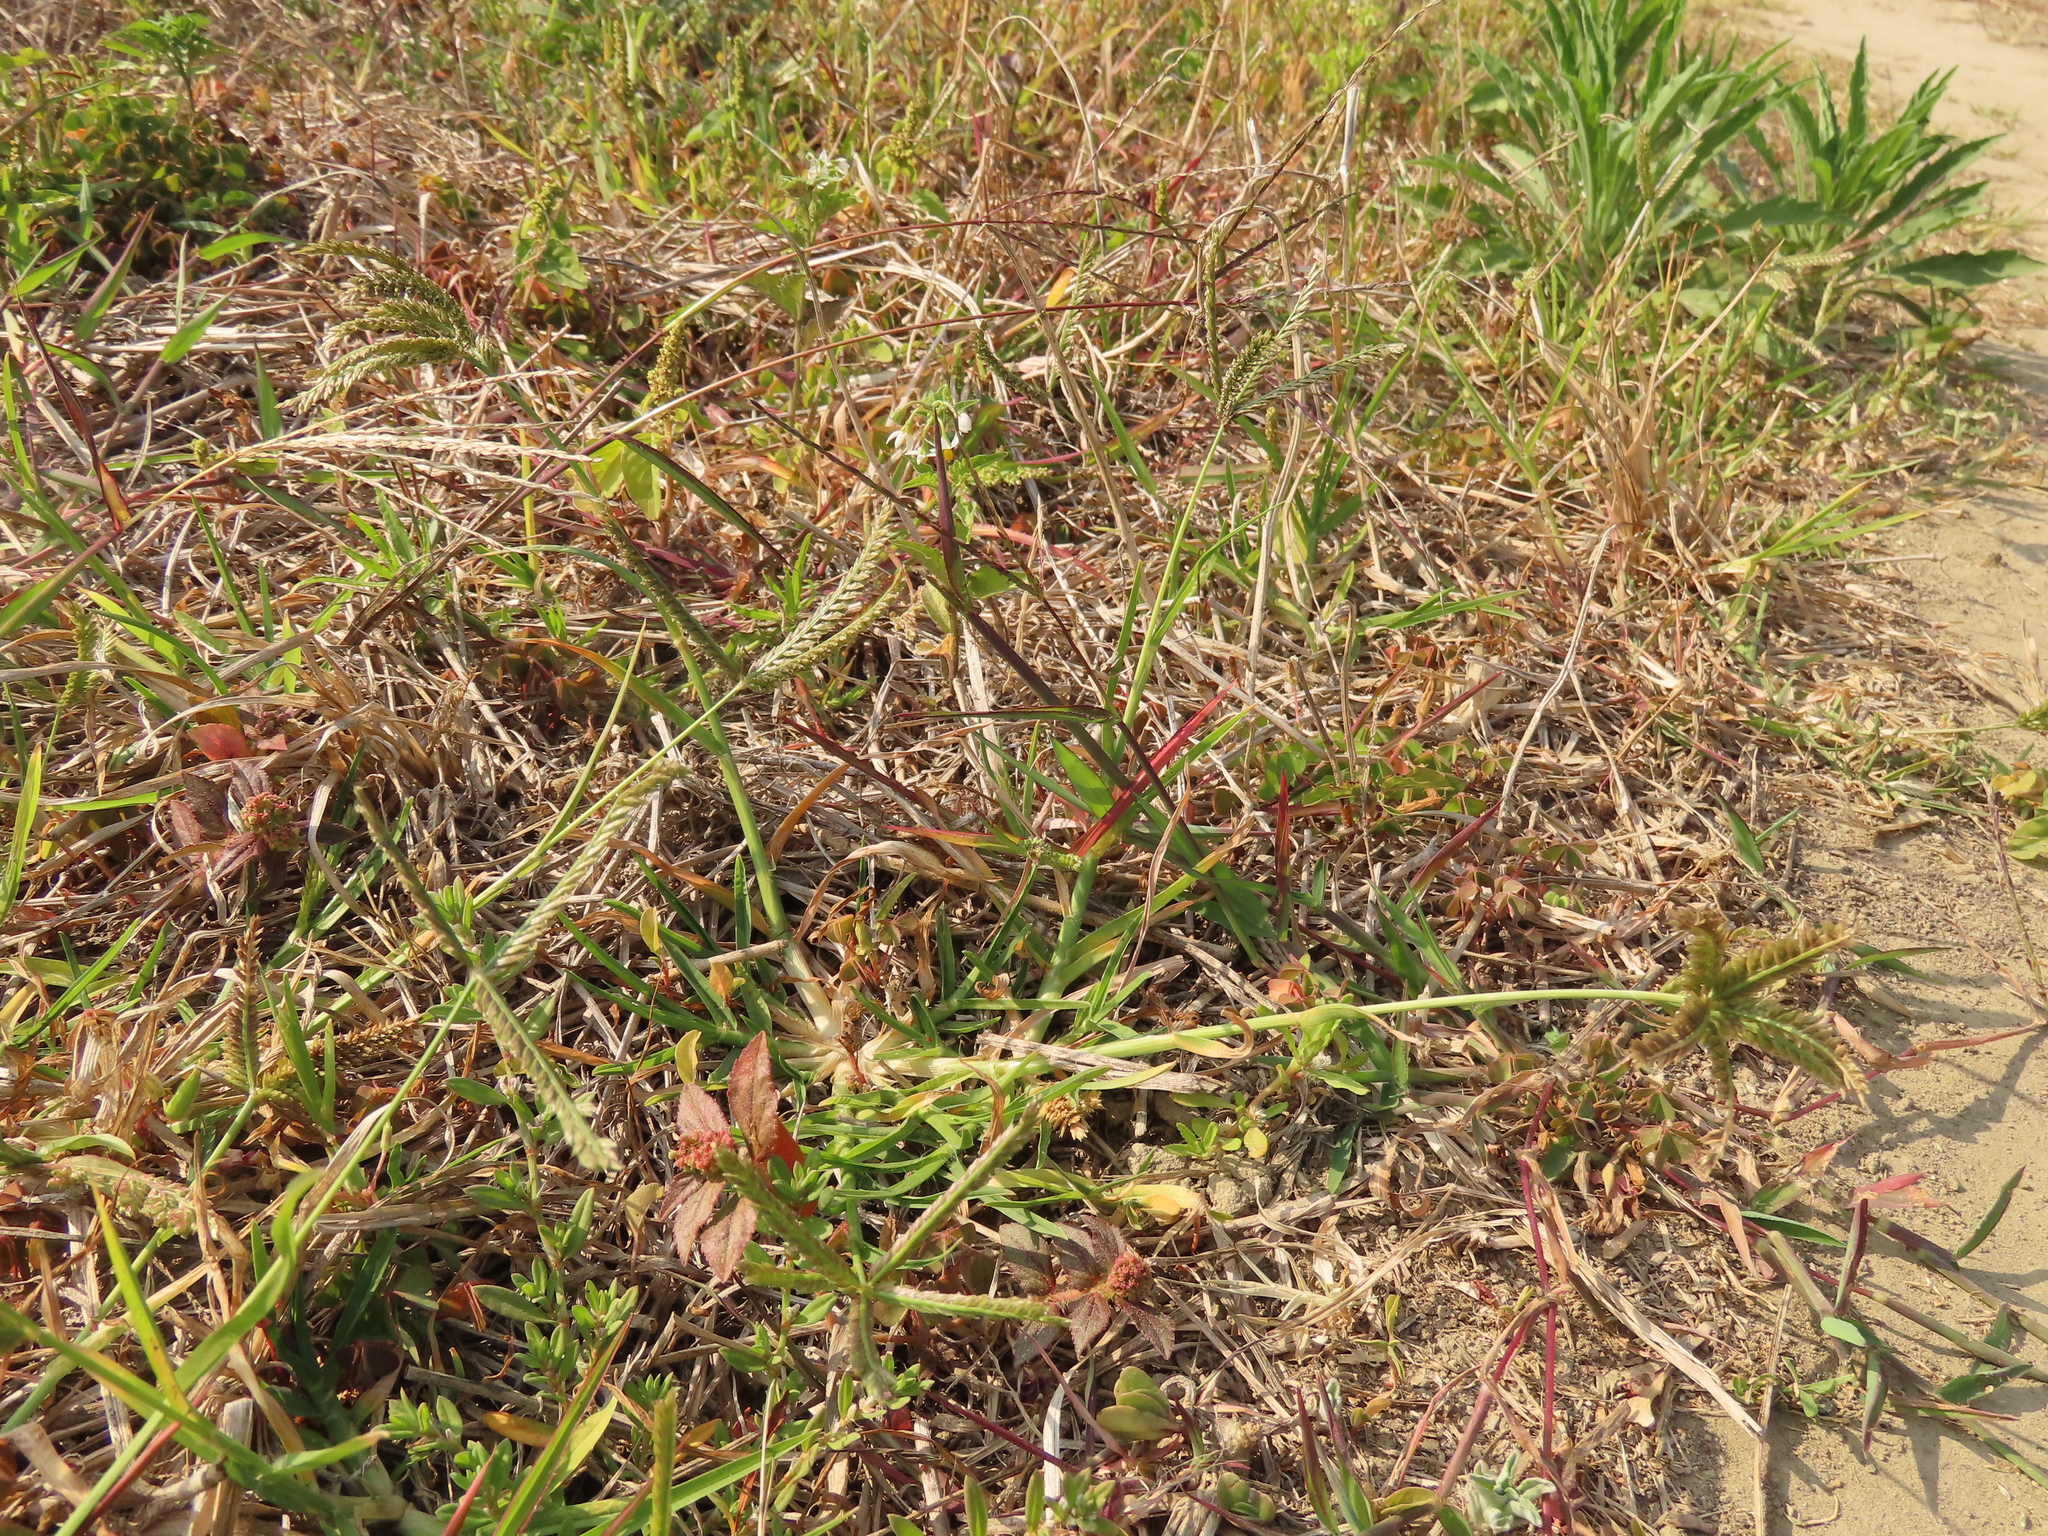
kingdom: Plantae
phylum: Tracheophyta
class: Liliopsida
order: Poales
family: Poaceae
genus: Eleusine
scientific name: Eleusine indica
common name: Yard-grass
